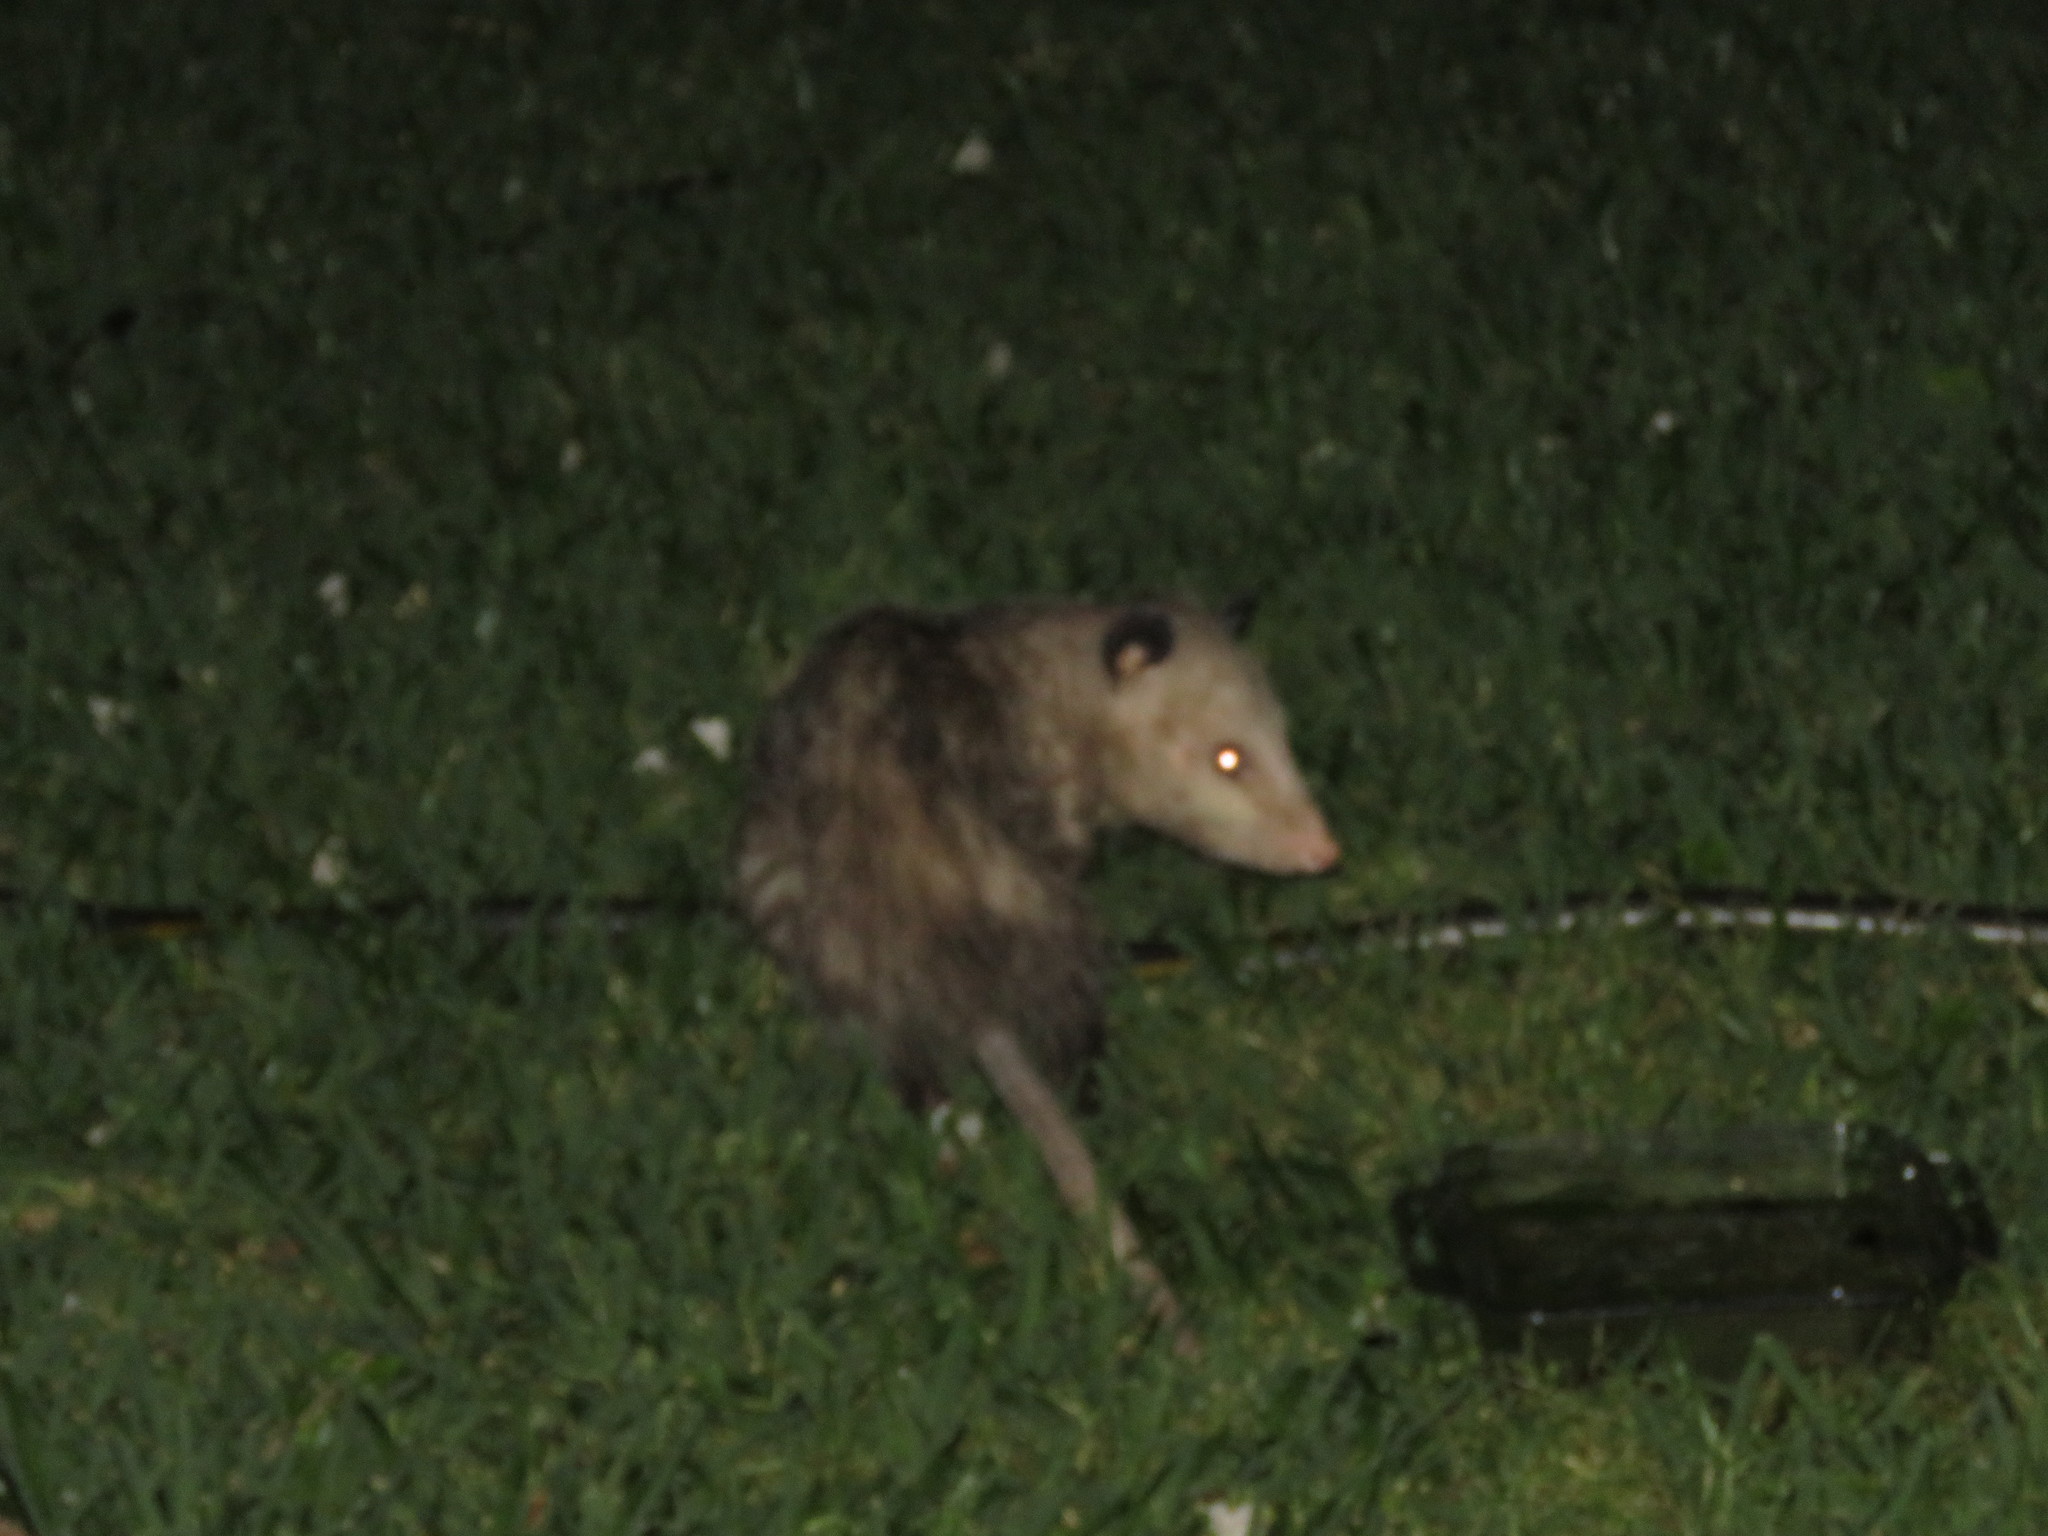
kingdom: Animalia
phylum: Chordata
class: Mammalia
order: Didelphimorphia
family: Didelphidae
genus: Didelphis
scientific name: Didelphis virginiana
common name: Virginia opossum
